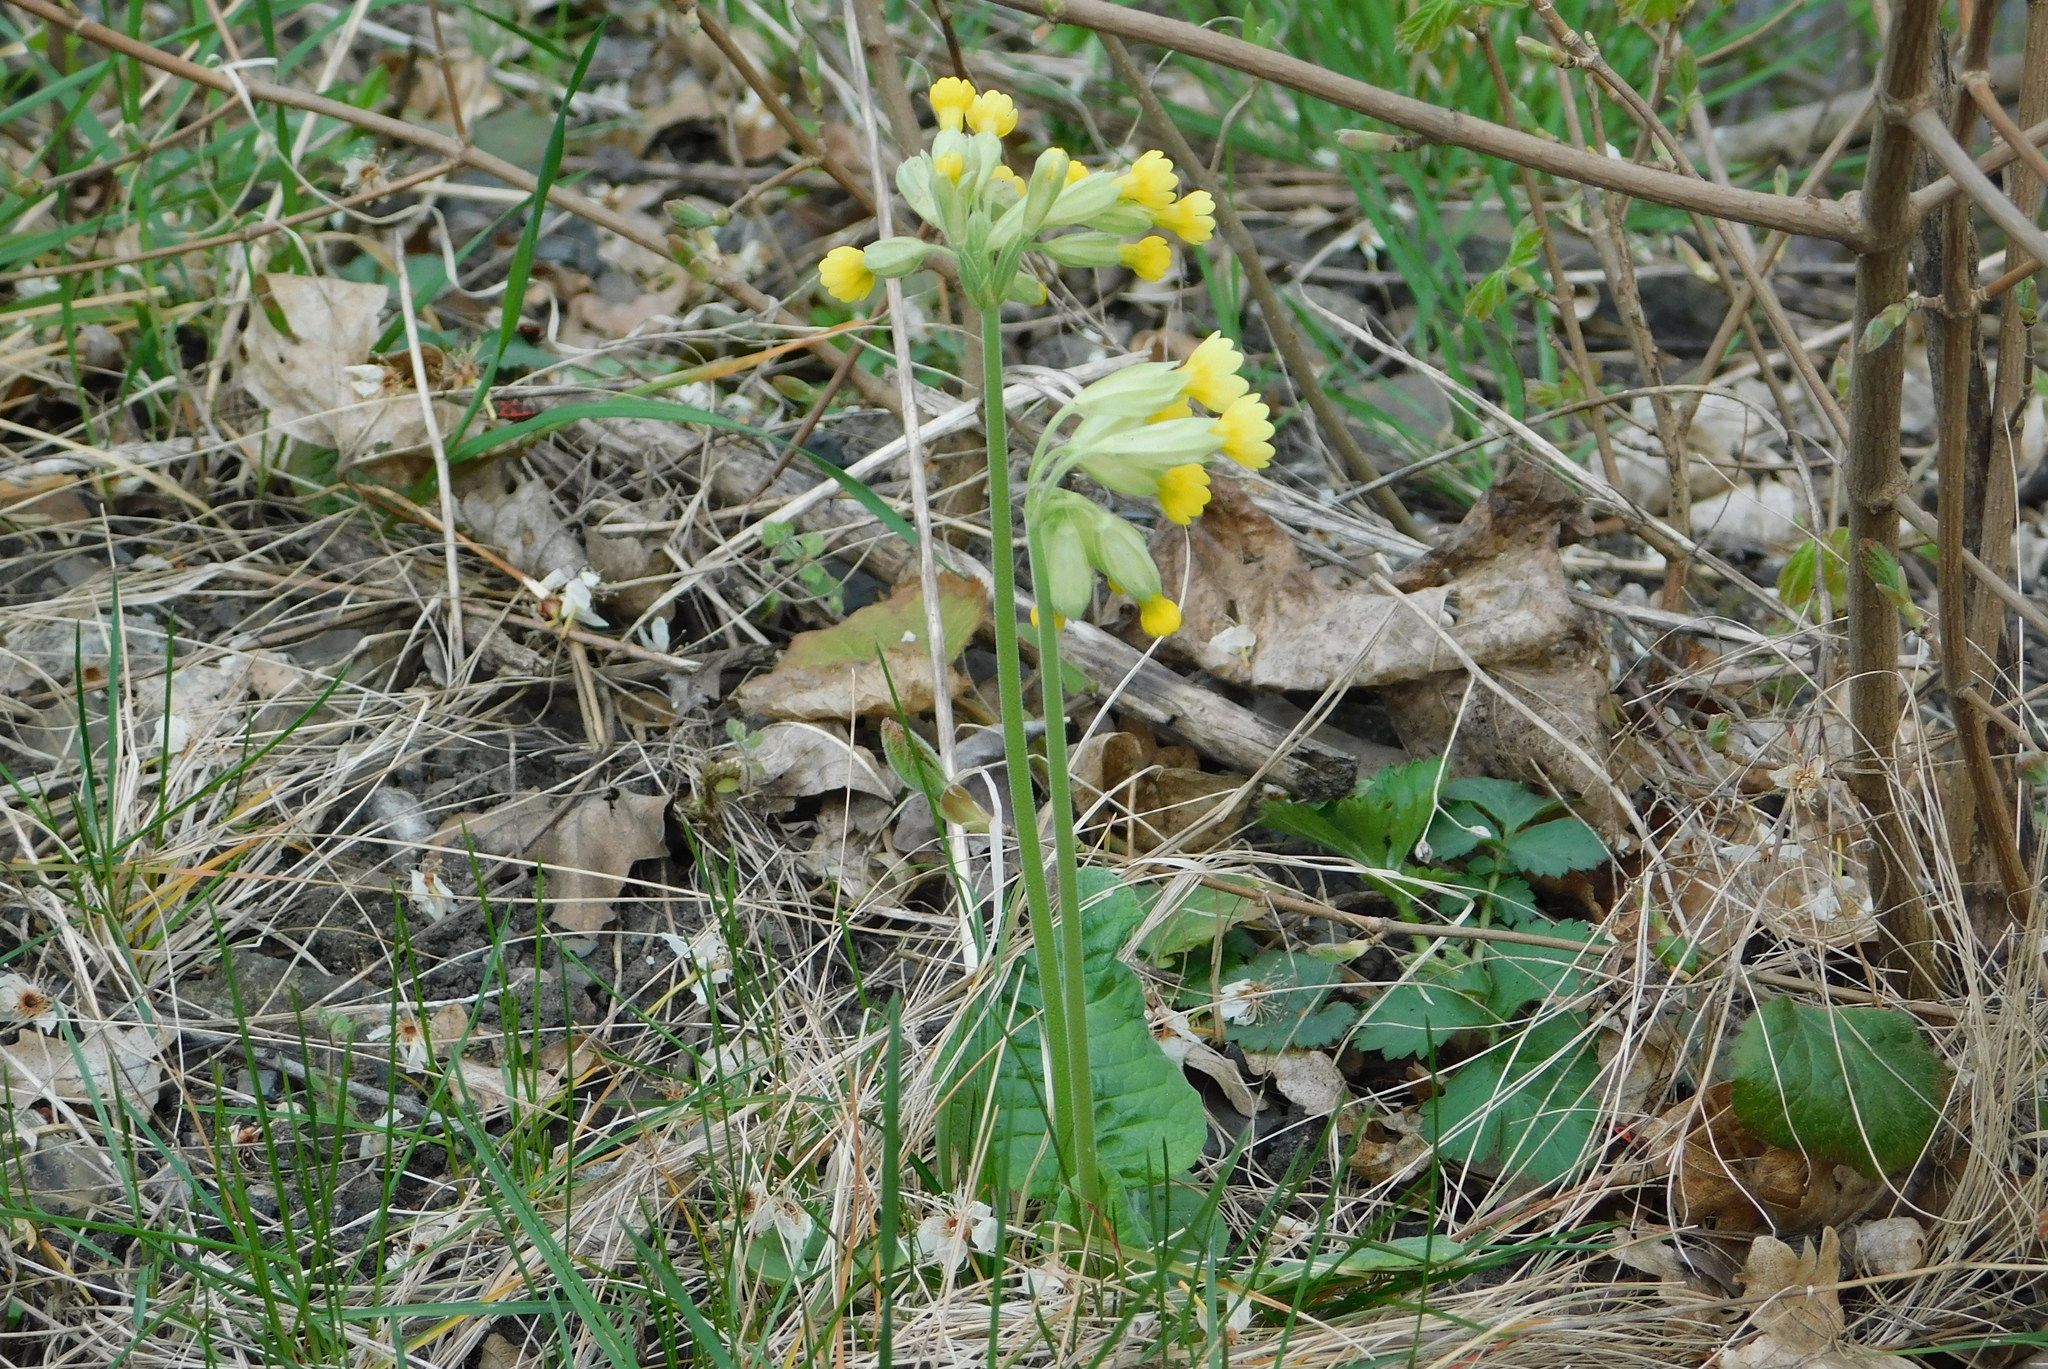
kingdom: Plantae
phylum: Tracheophyta
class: Magnoliopsida
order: Ericales
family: Primulaceae
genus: Primula
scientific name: Primula veris
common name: Cowslip
